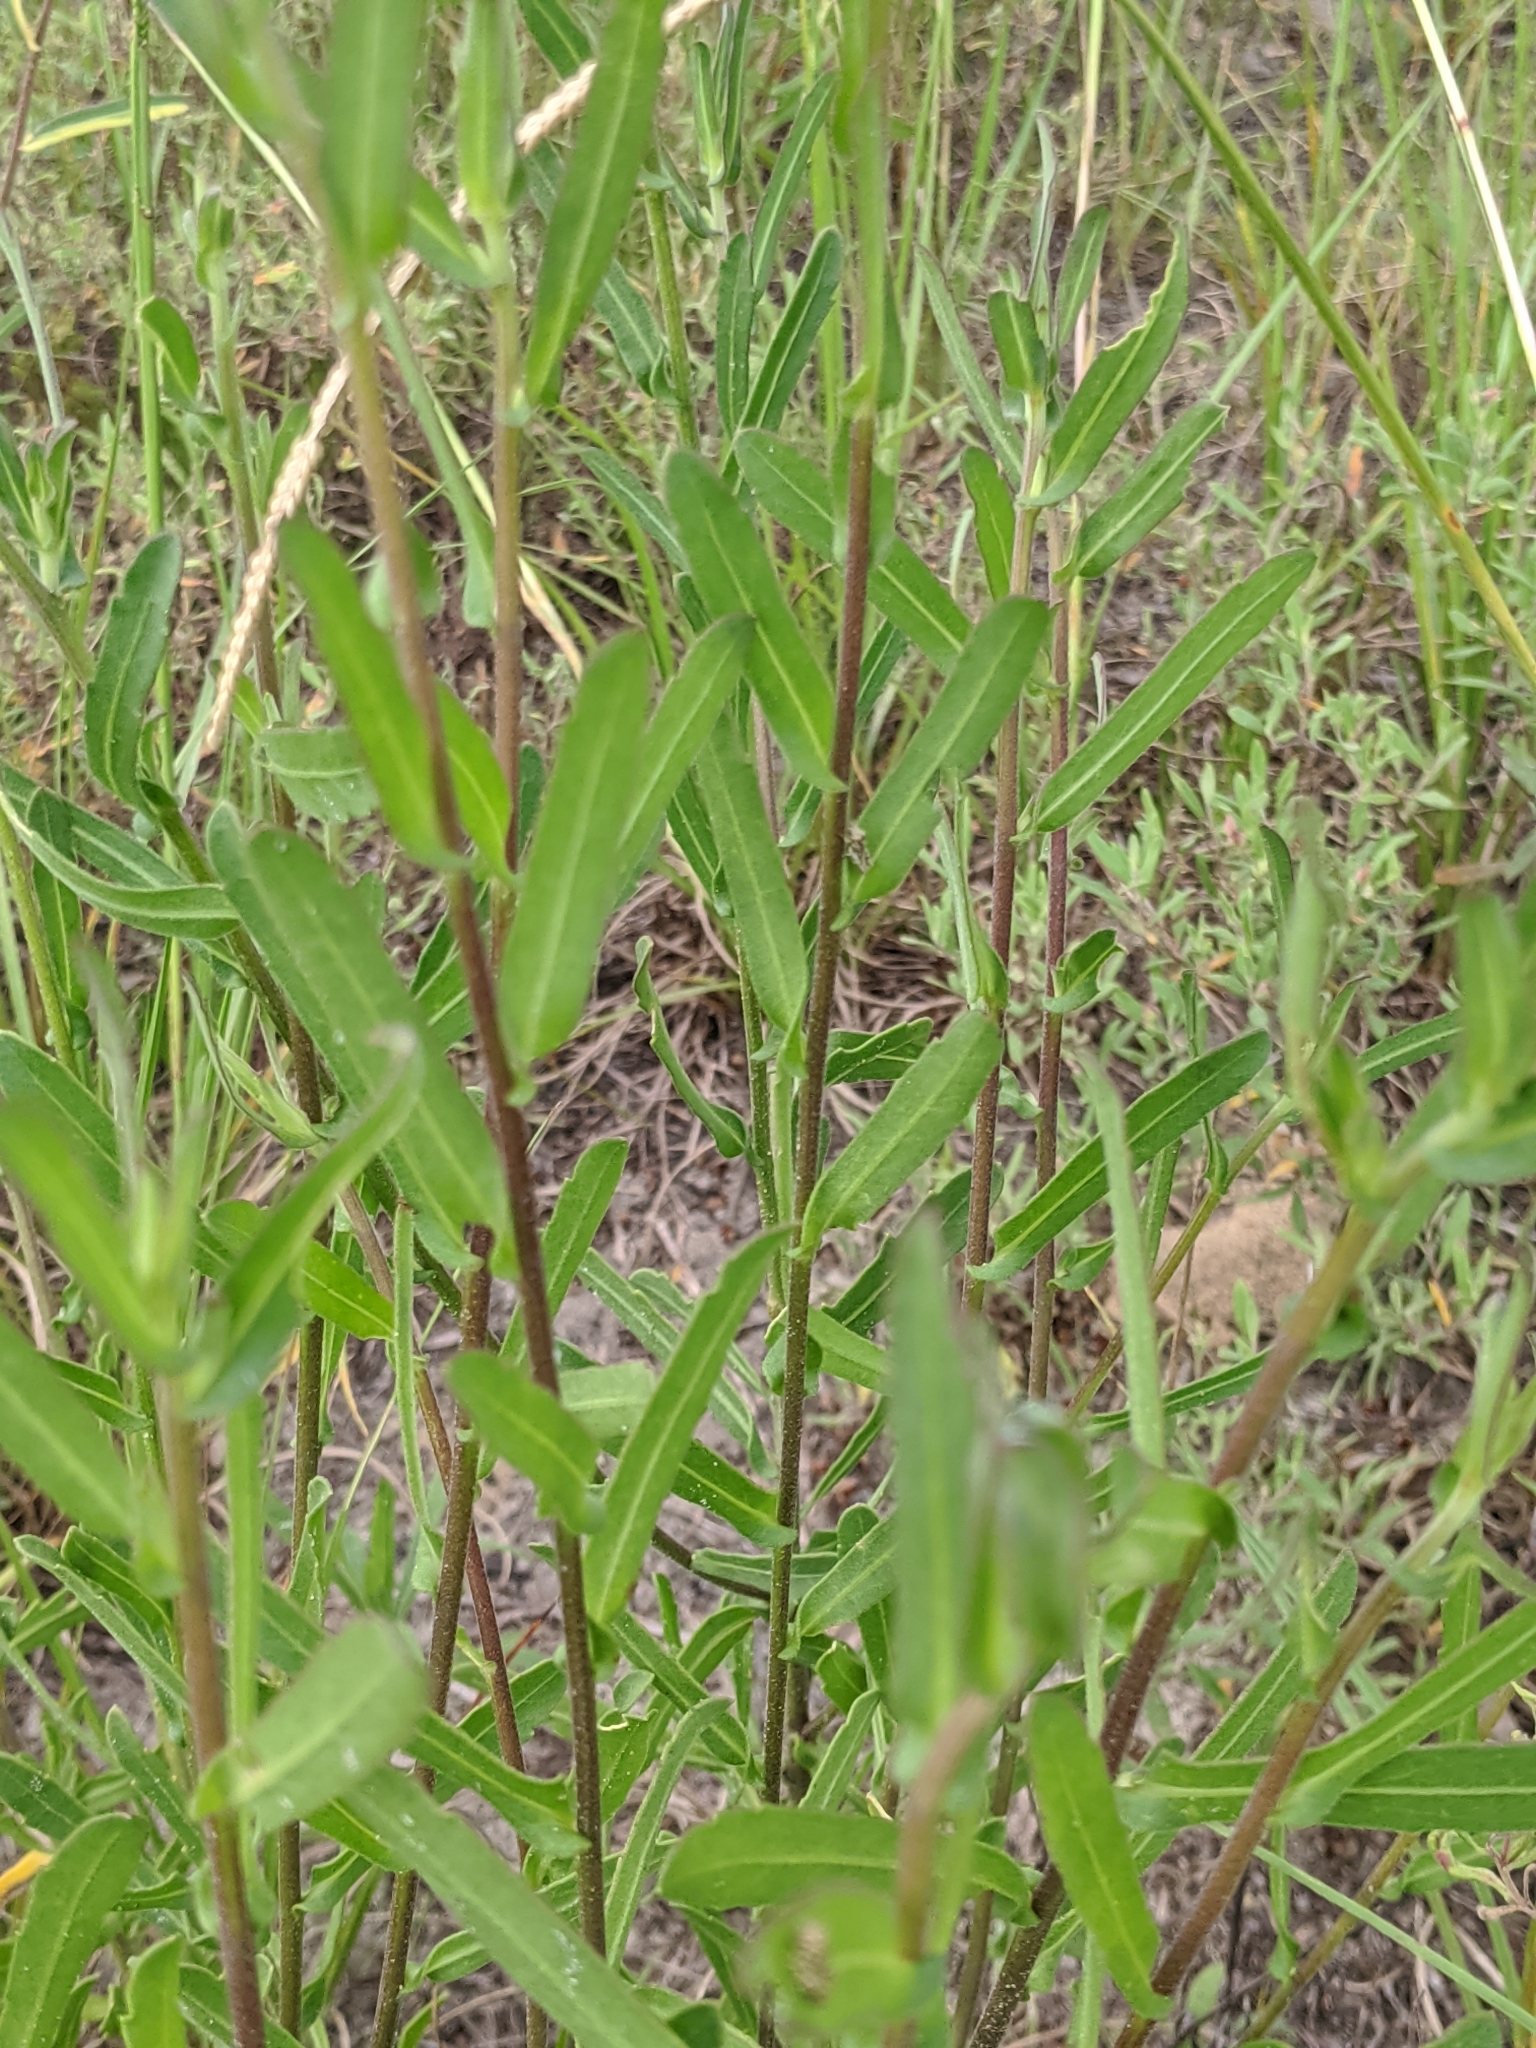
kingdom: Plantae
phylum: Tracheophyta
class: Magnoliopsida
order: Asterales
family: Asteraceae
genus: Gaillardia
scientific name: Gaillardia aestivalis
